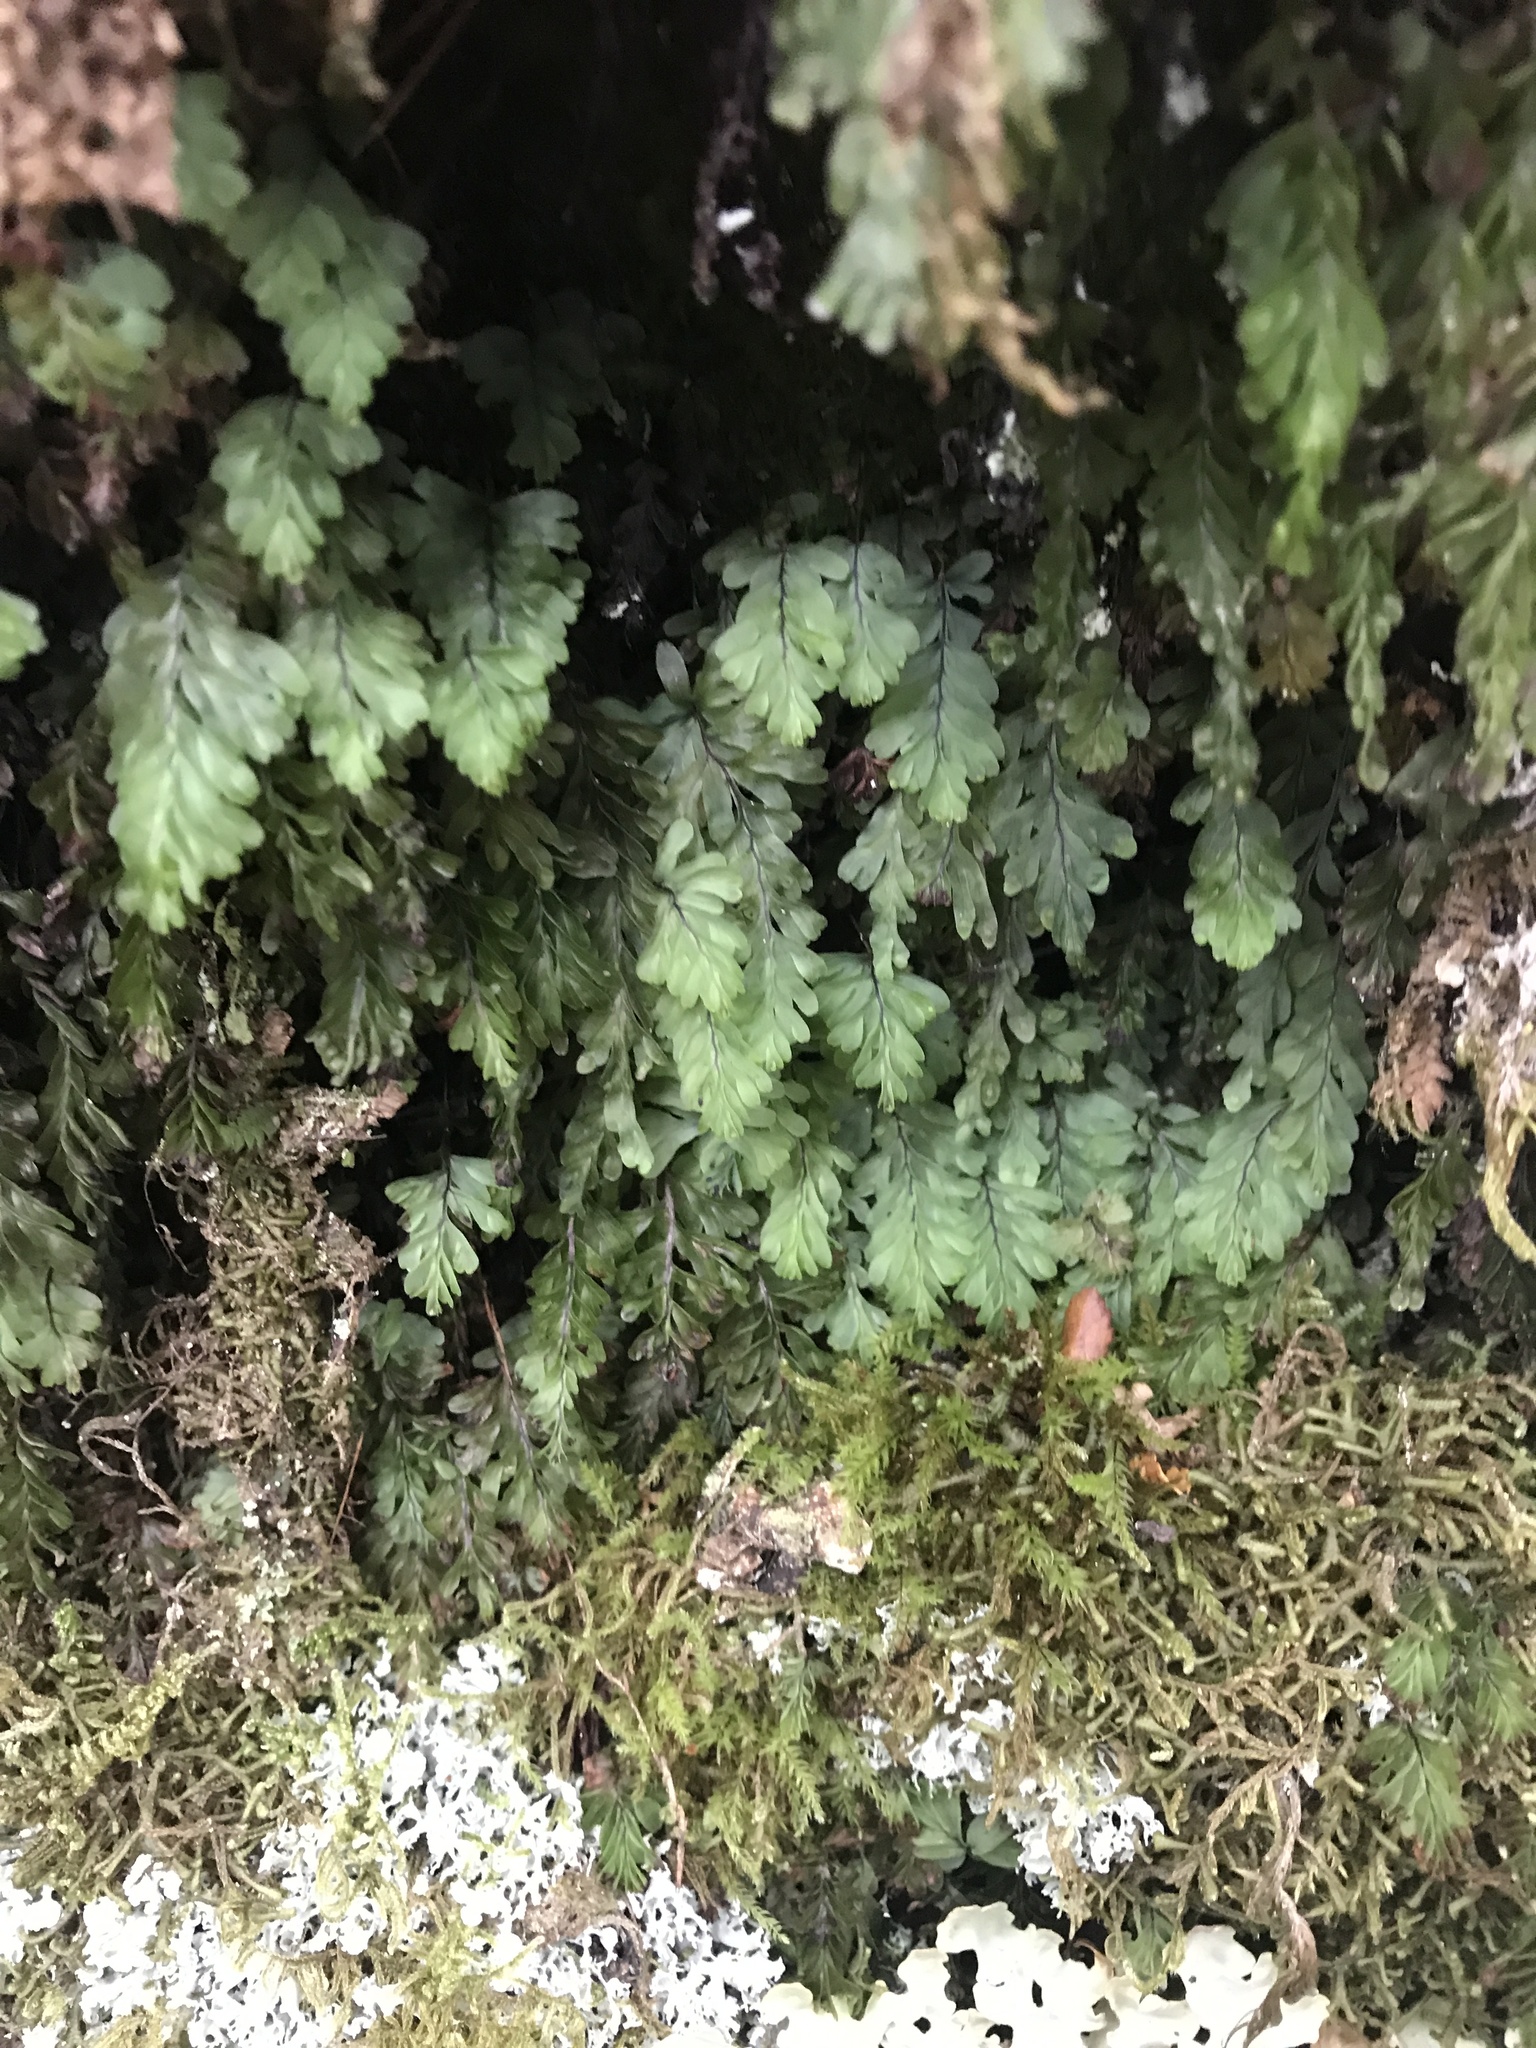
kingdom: Plantae
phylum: Tracheophyta
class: Polypodiopsida
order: Hymenophyllales
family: Hymenophyllaceae
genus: Hymenophyllum
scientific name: Hymenophyllum rarum
